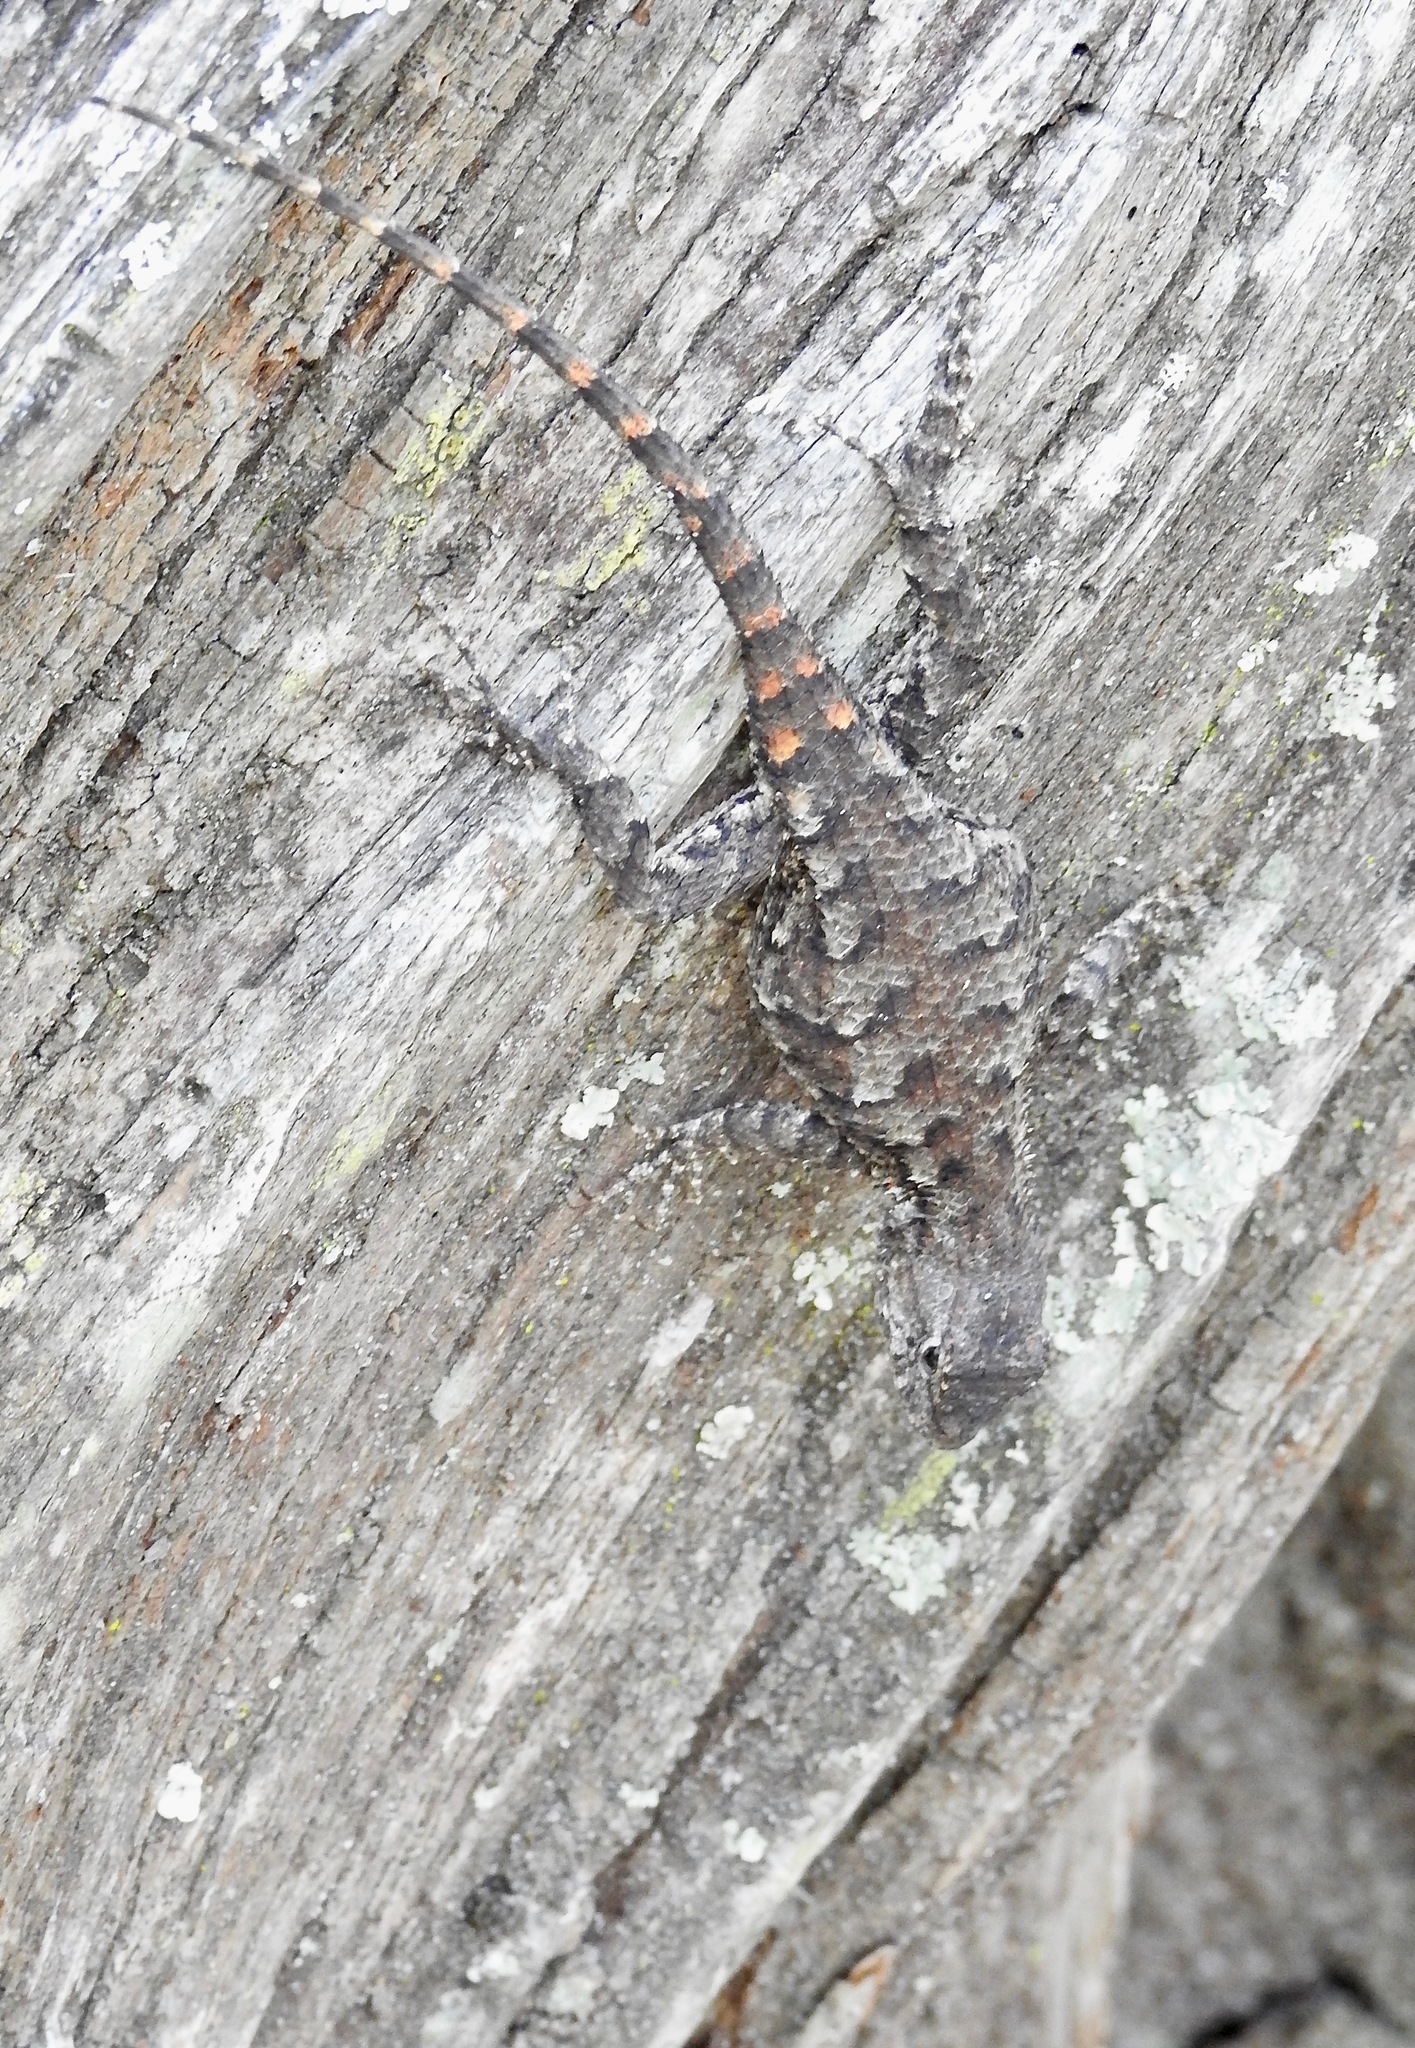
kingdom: Animalia
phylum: Chordata
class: Squamata
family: Phrynosomatidae
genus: Sceloporus
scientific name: Sceloporus undulatus
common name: Eastern fence lizard
